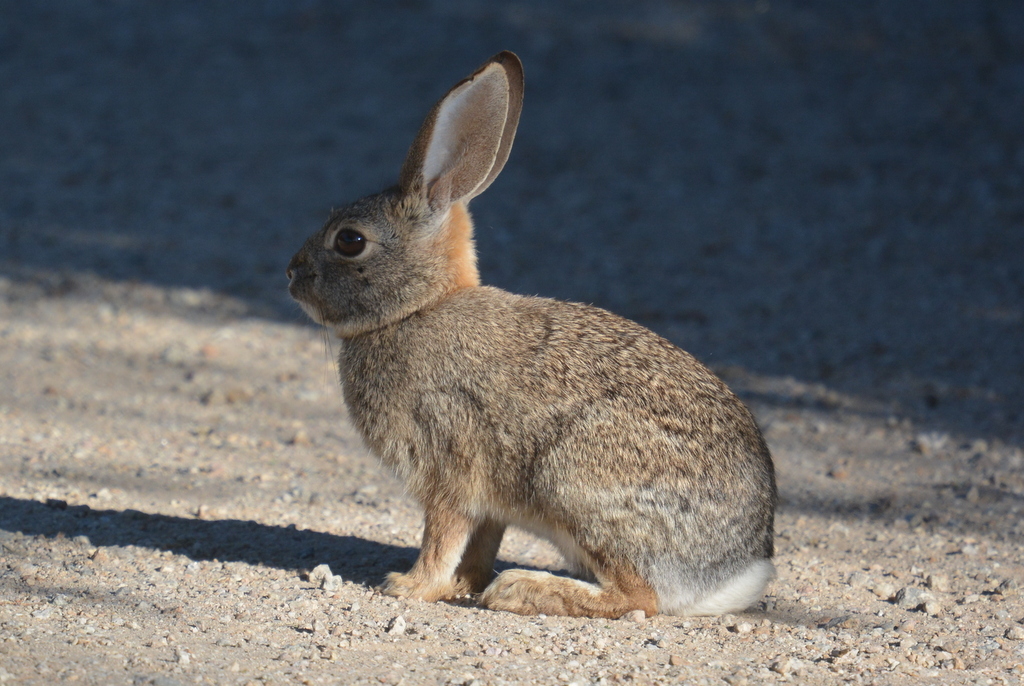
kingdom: Animalia
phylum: Chordata
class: Mammalia
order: Lagomorpha
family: Leporidae
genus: Sylvilagus
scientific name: Sylvilagus audubonii
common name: Desert cottontail
